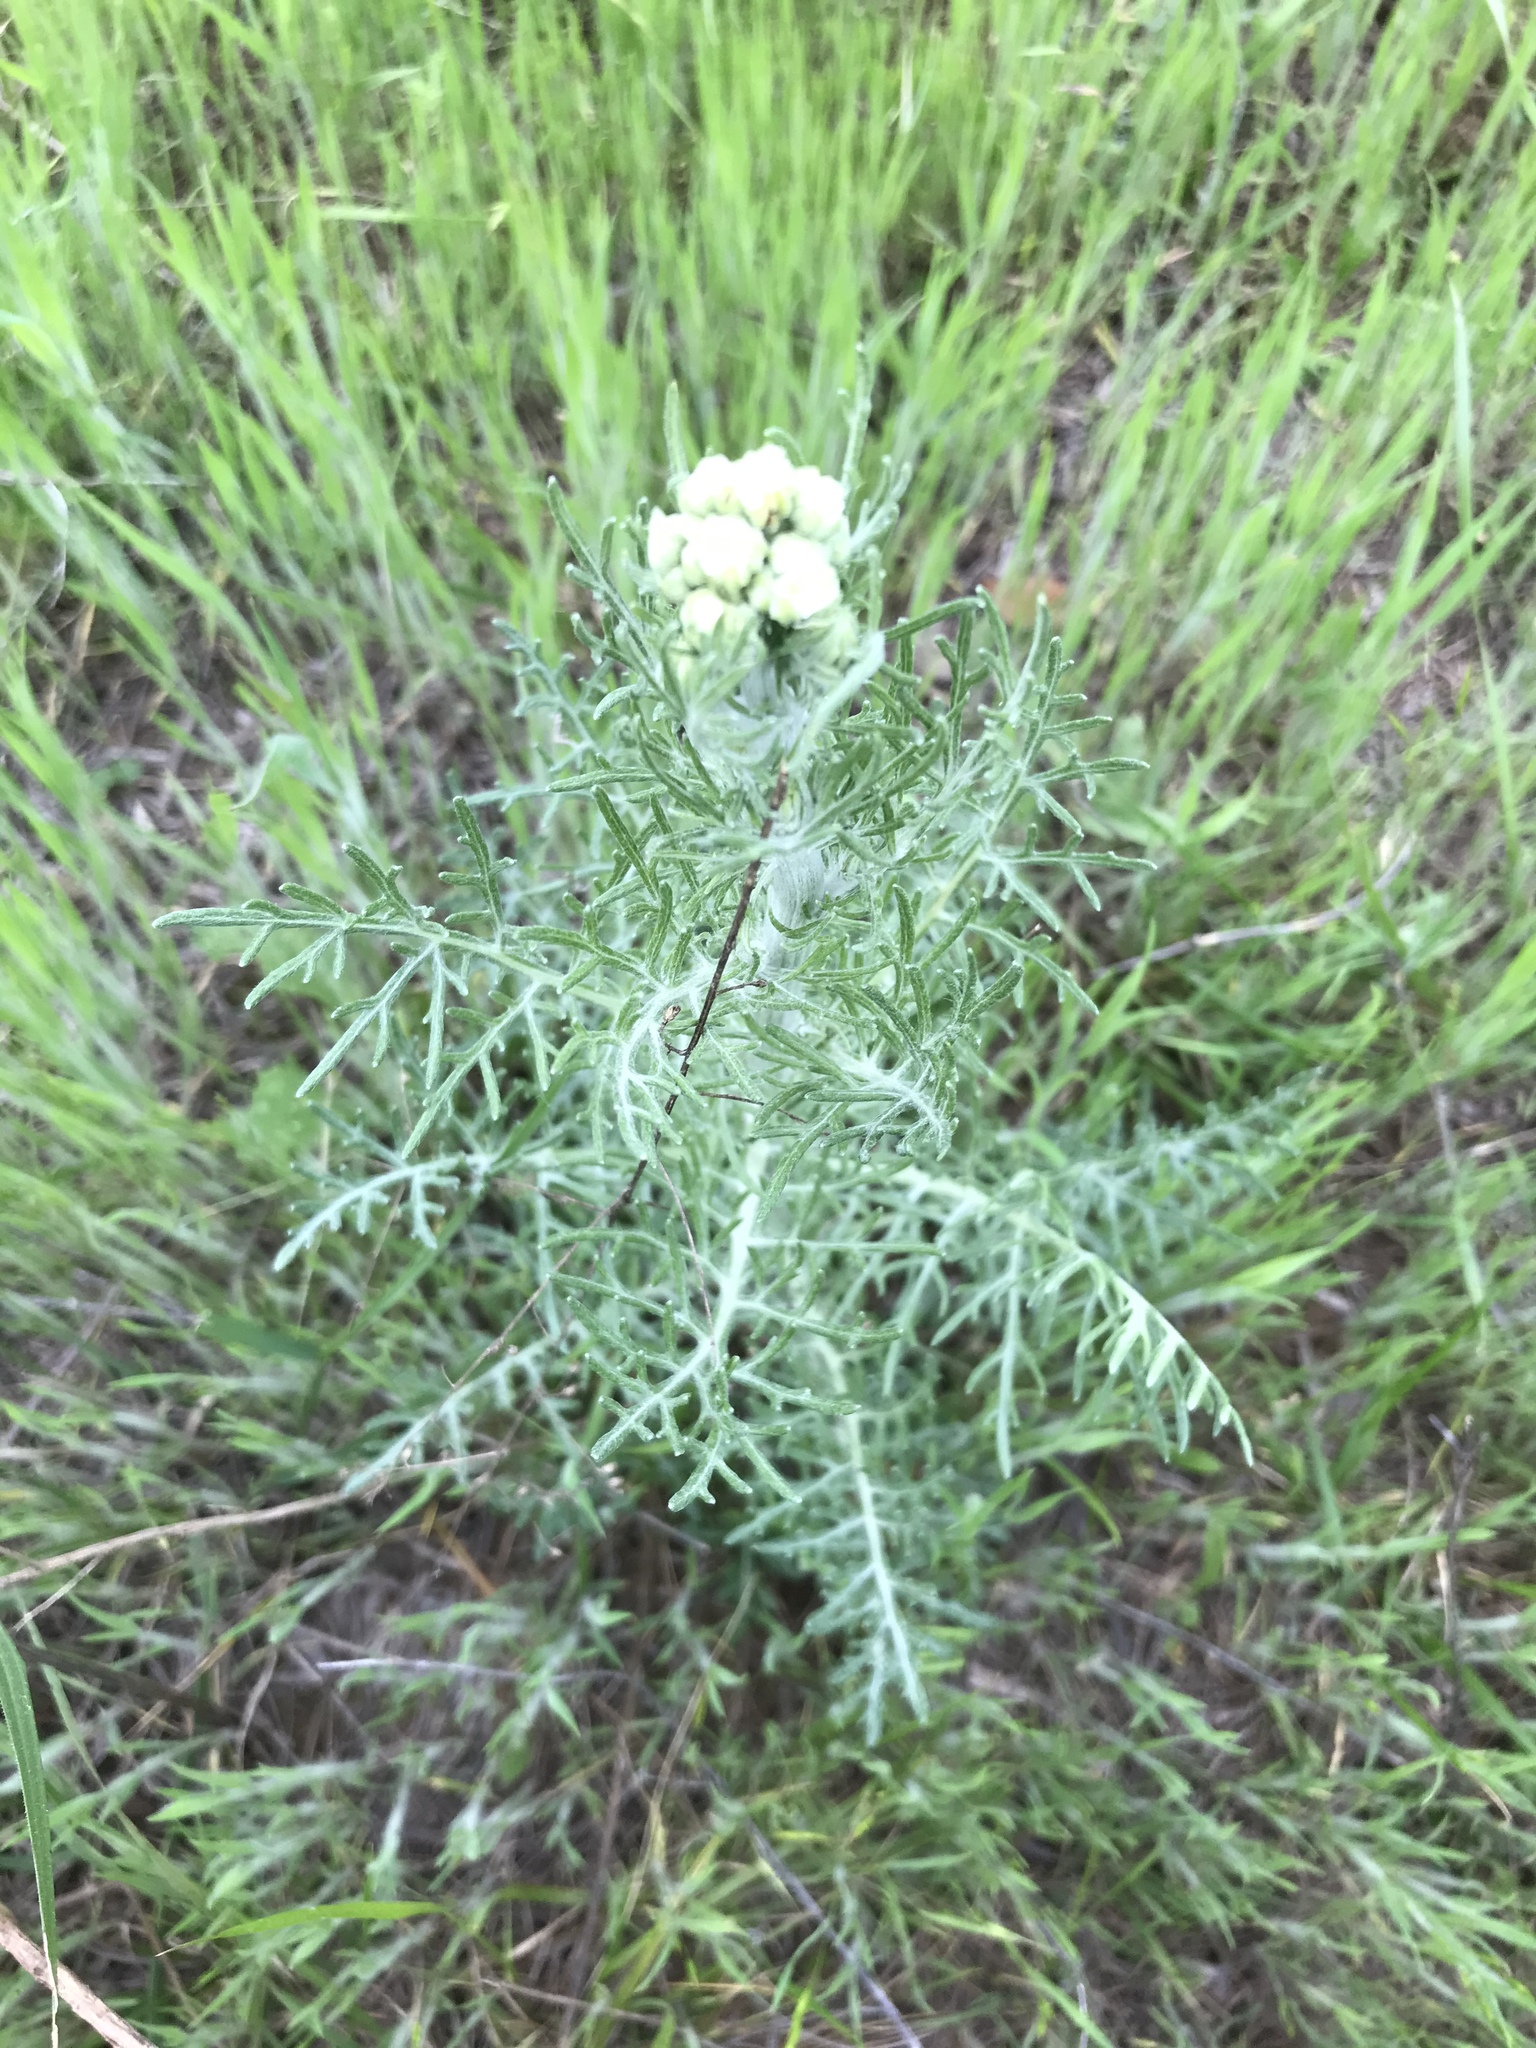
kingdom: Plantae
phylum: Tracheophyta
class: Magnoliopsida
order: Asterales
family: Asteraceae
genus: Hymenopappus
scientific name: Hymenopappus scabiosaeus
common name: Carolina woollywhite
